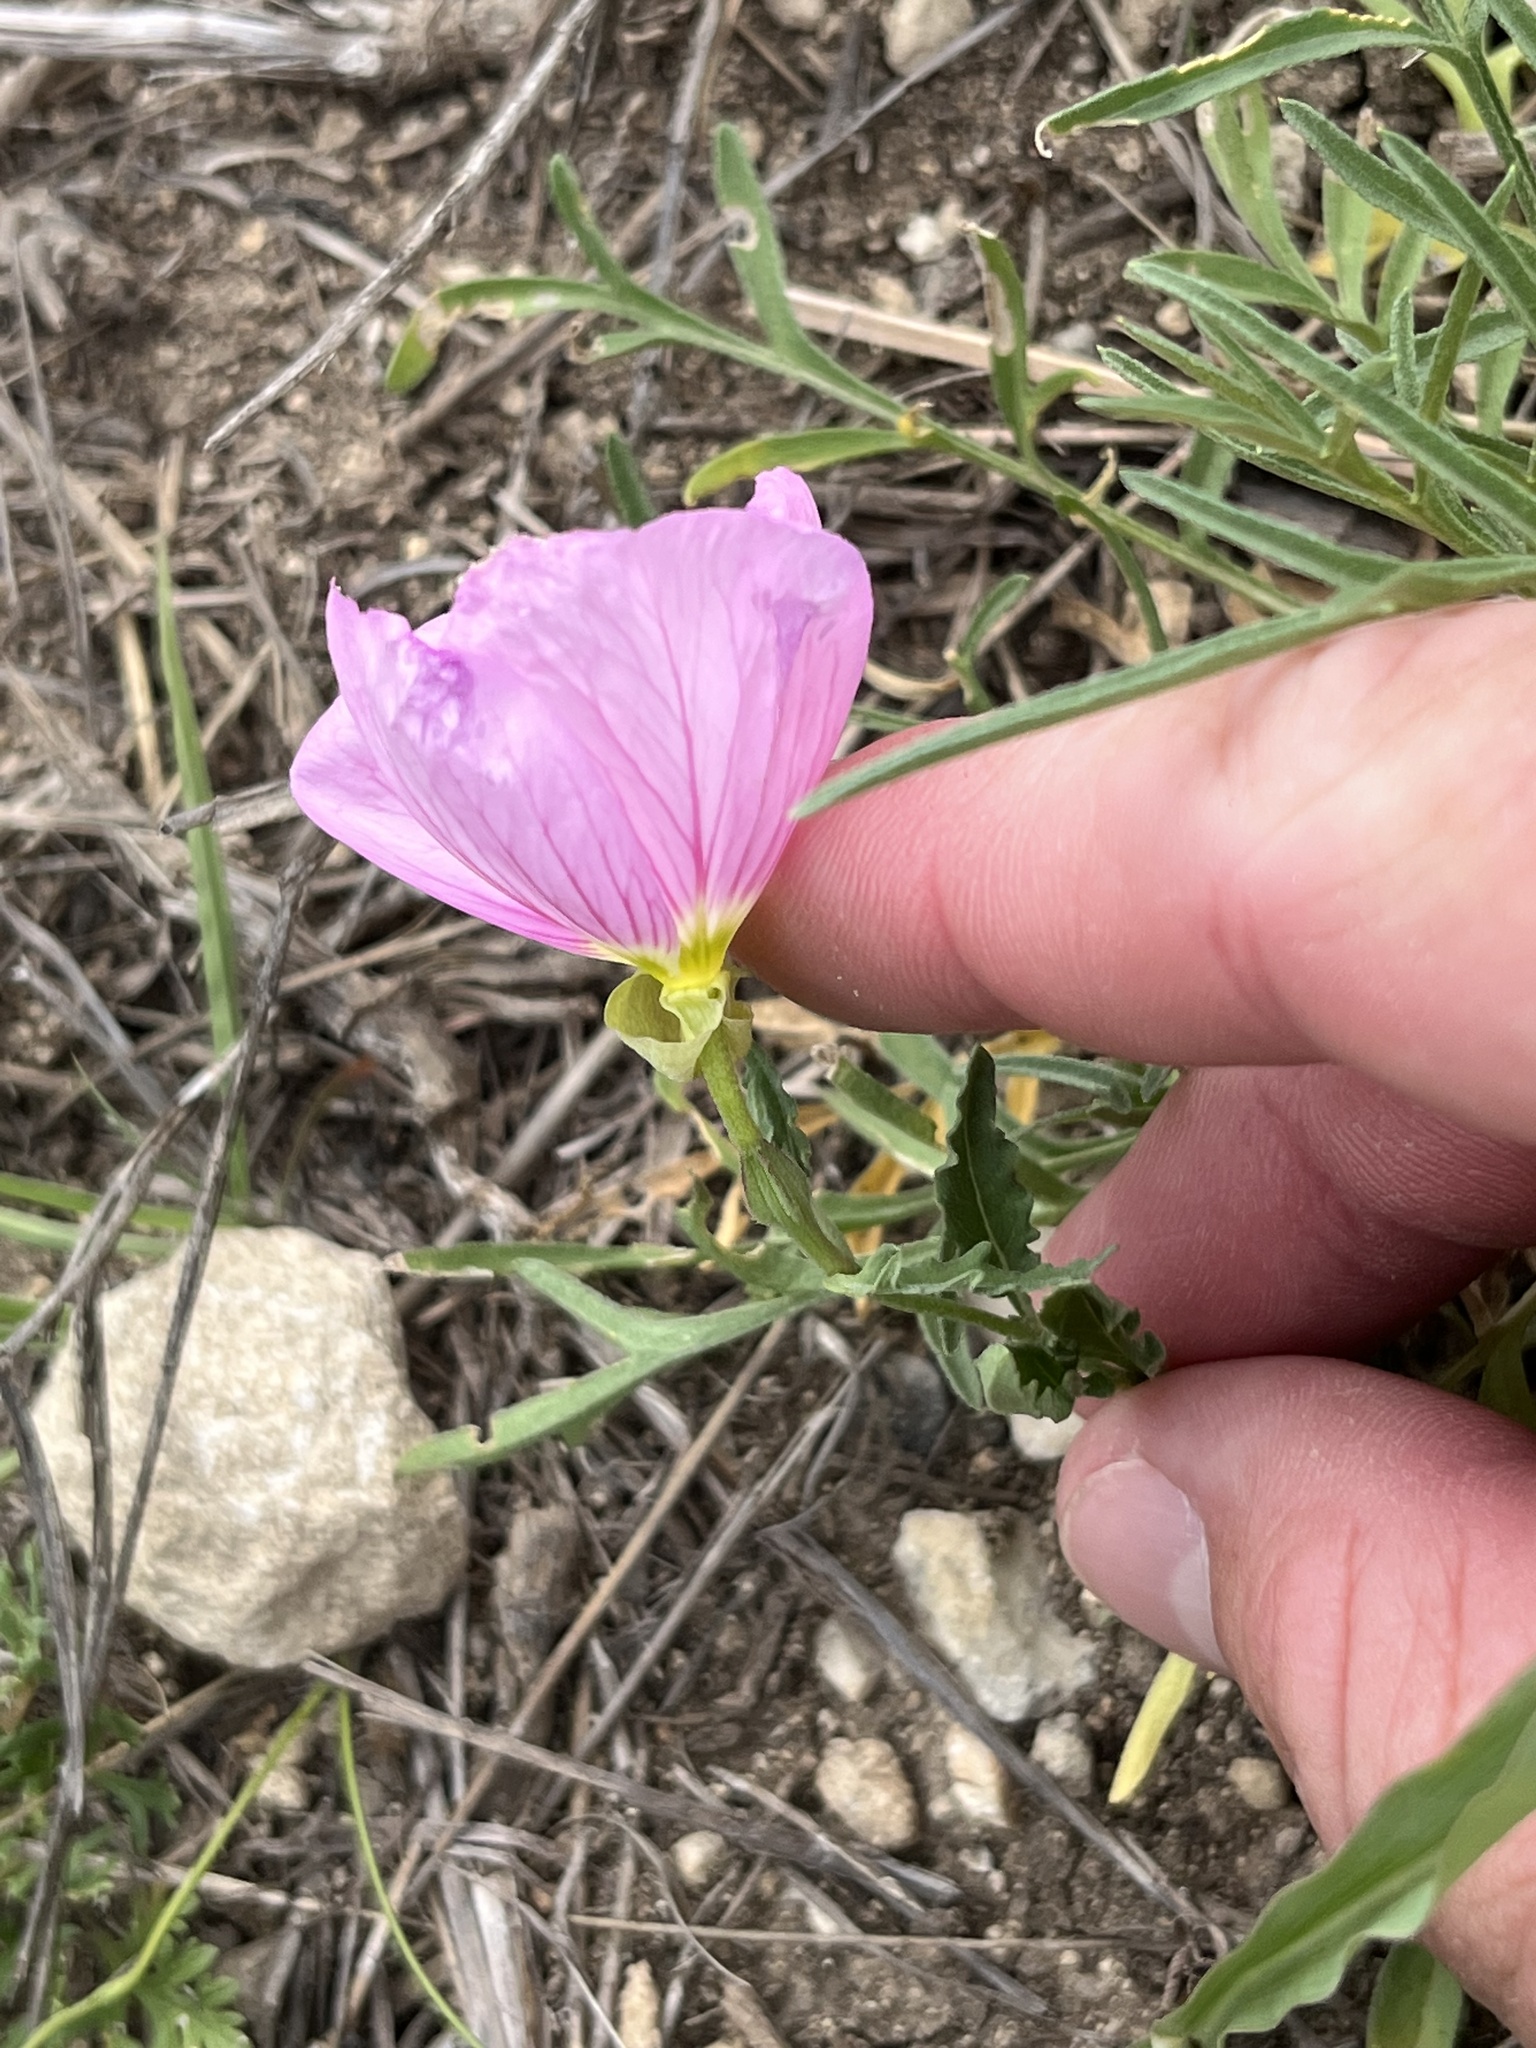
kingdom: Plantae
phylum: Tracheophyta
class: Magnoliopsida
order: Myrtales
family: Onagraceae
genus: Oenothera
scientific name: Oenothera speciosa
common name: White evening-primrose
